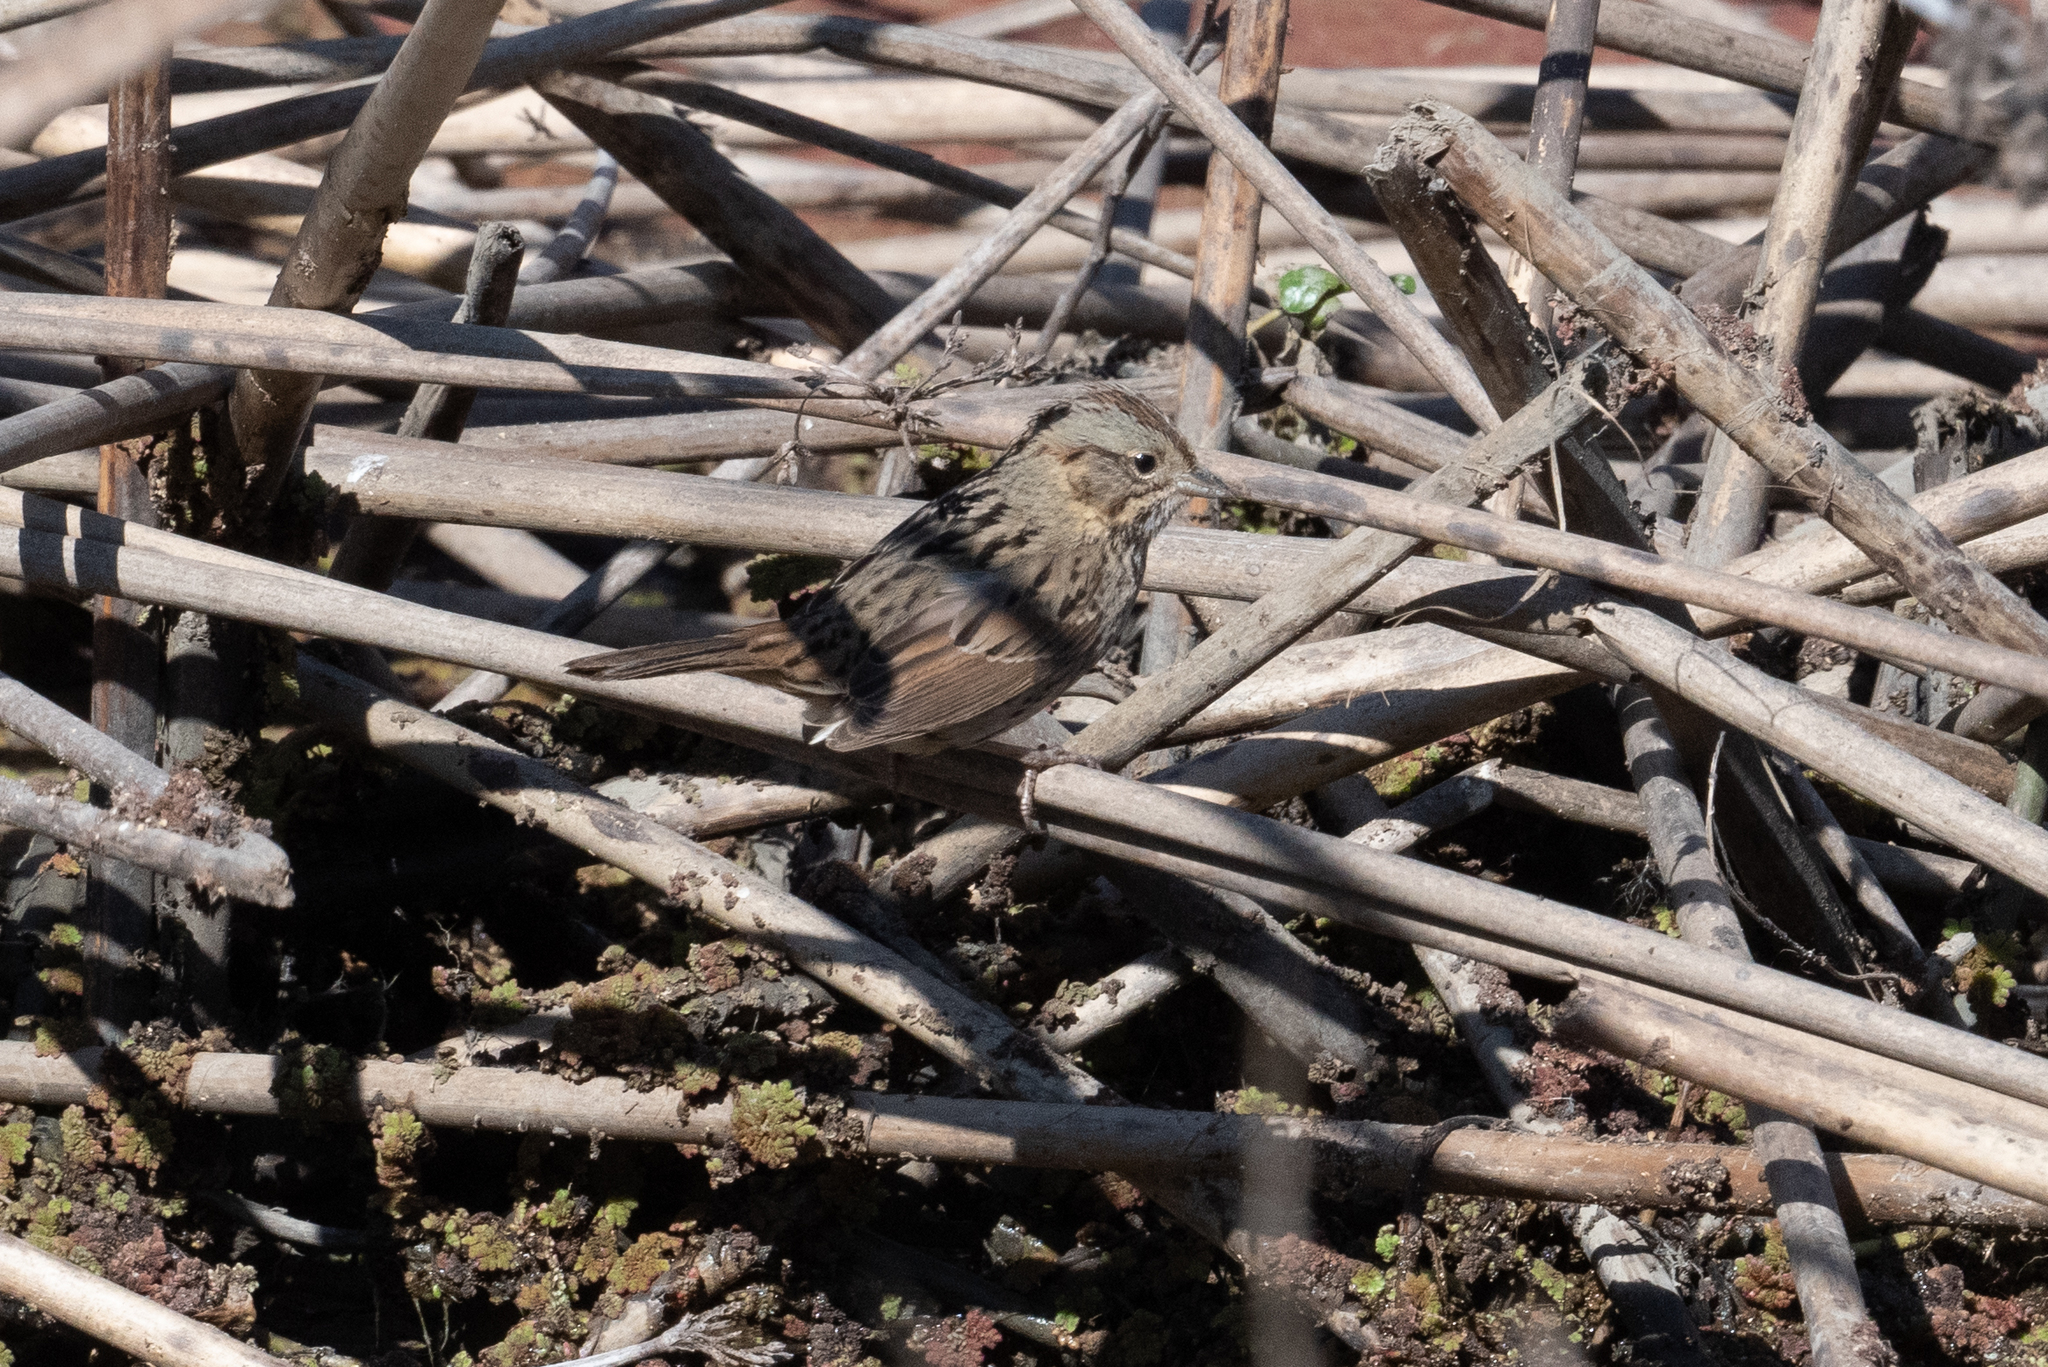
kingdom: Animalia
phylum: Chordata
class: Aves
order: Passeriformes
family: Passerellidae
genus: Melospiza
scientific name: Melospiza lincolnii
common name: Lincoln's sparrow
